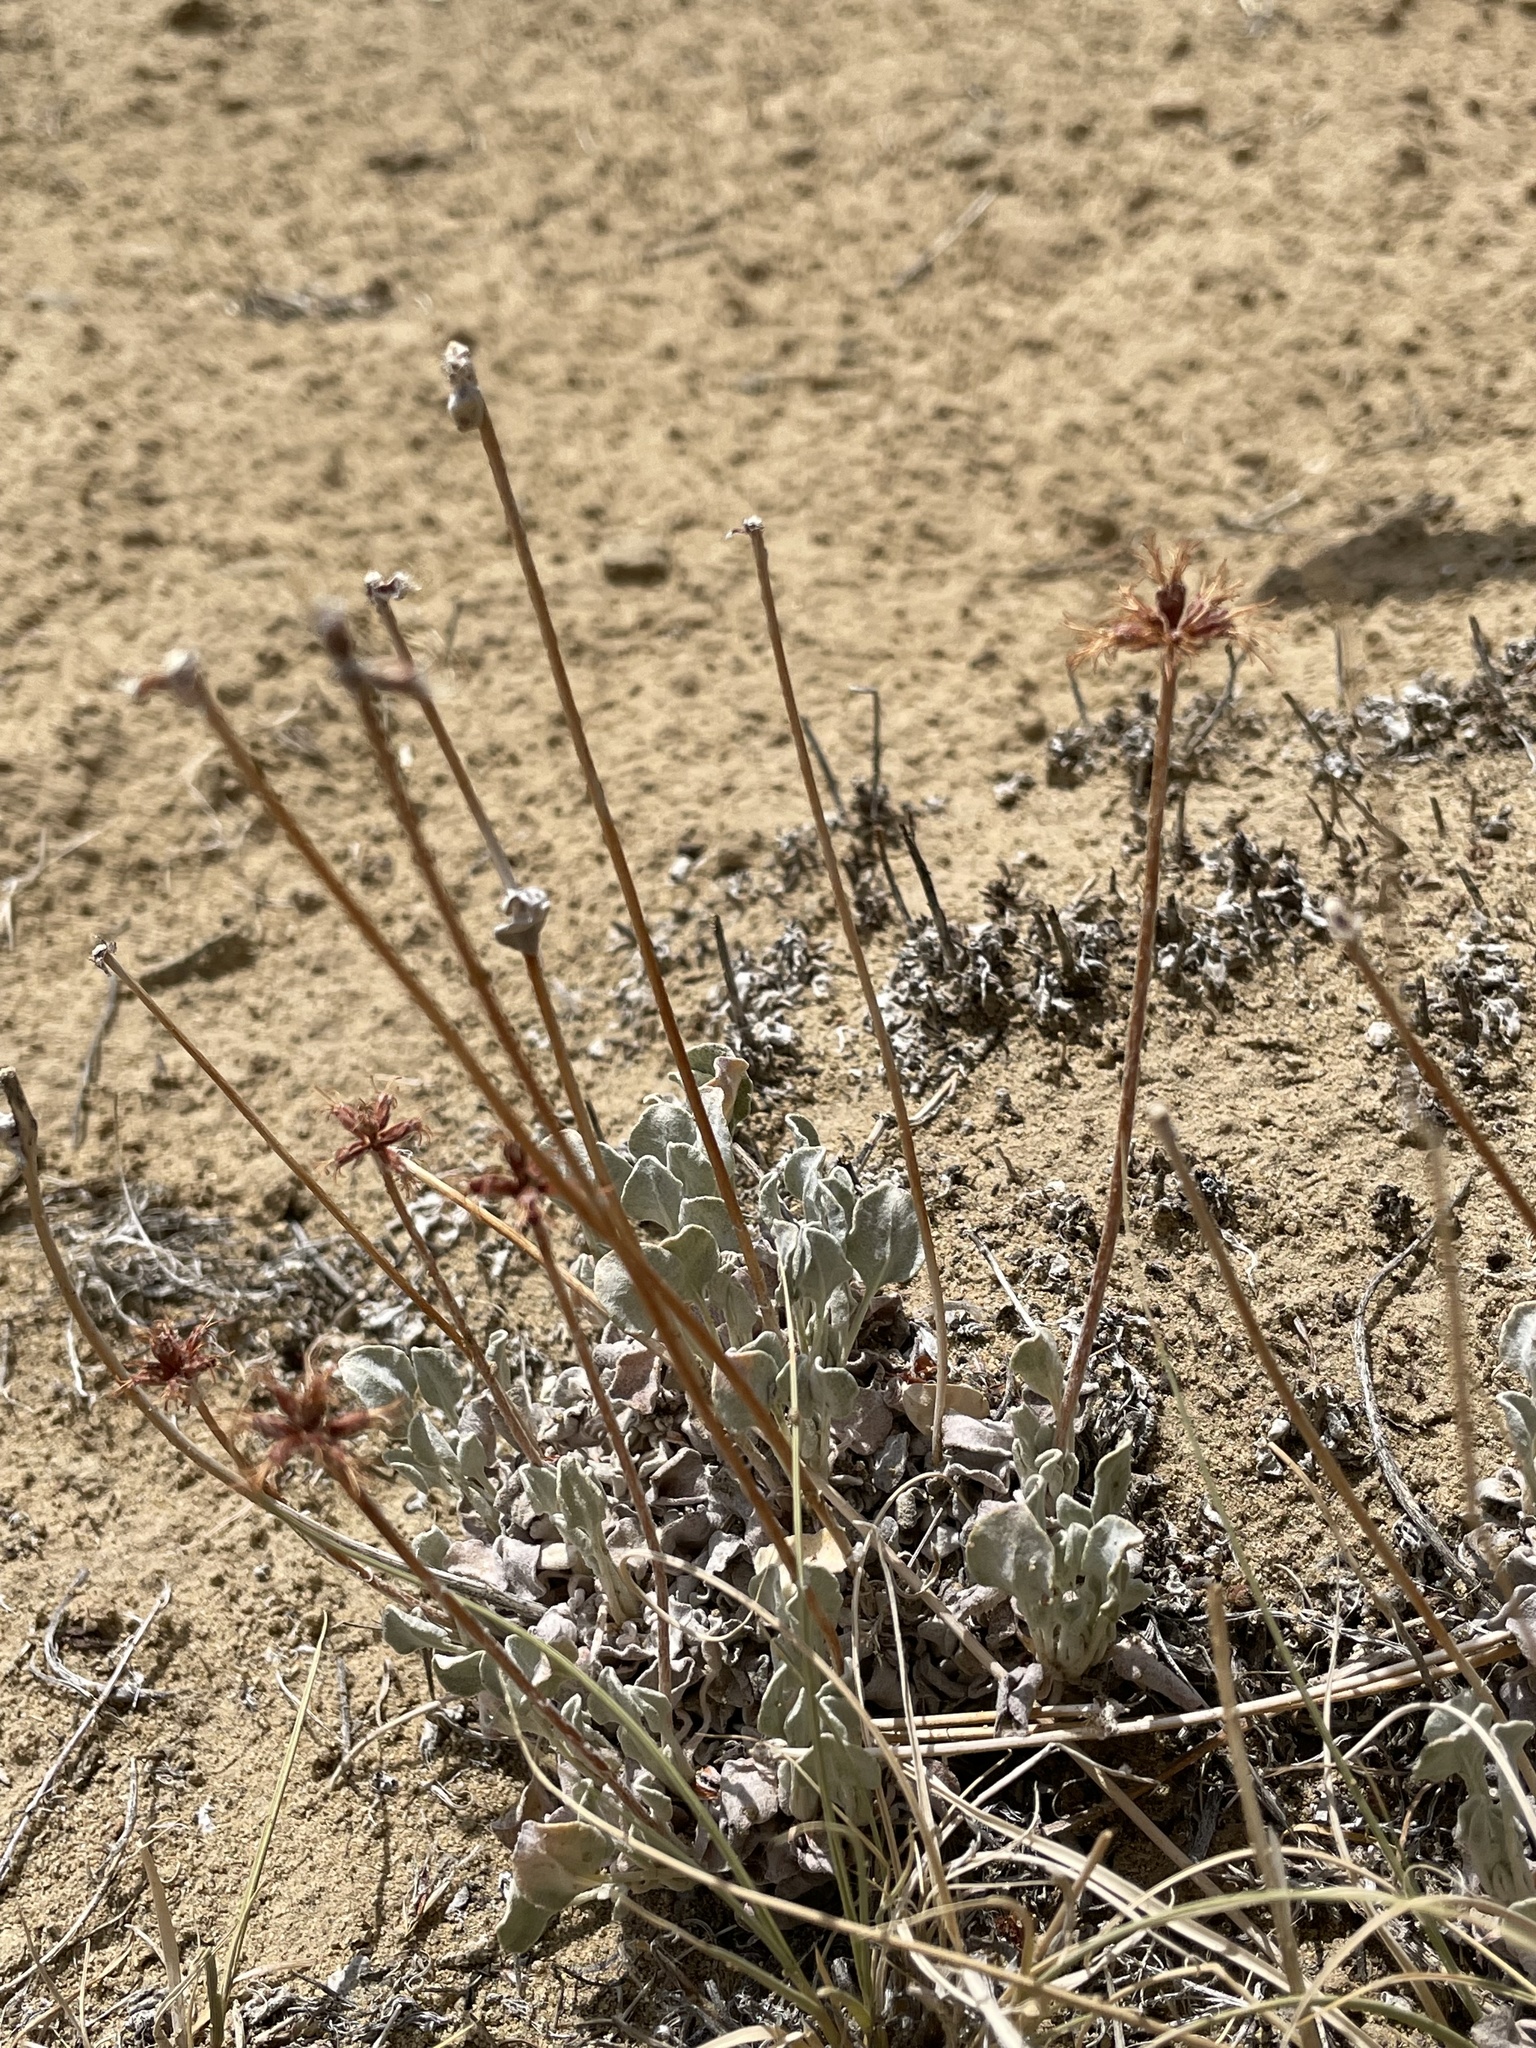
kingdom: Plantae
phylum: Tracheophyta
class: Magnoliopsida
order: Caryophyllales
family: Polygonaceae
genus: Eriogonum
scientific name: Eriogonum jamesii
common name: Antelope-sage
